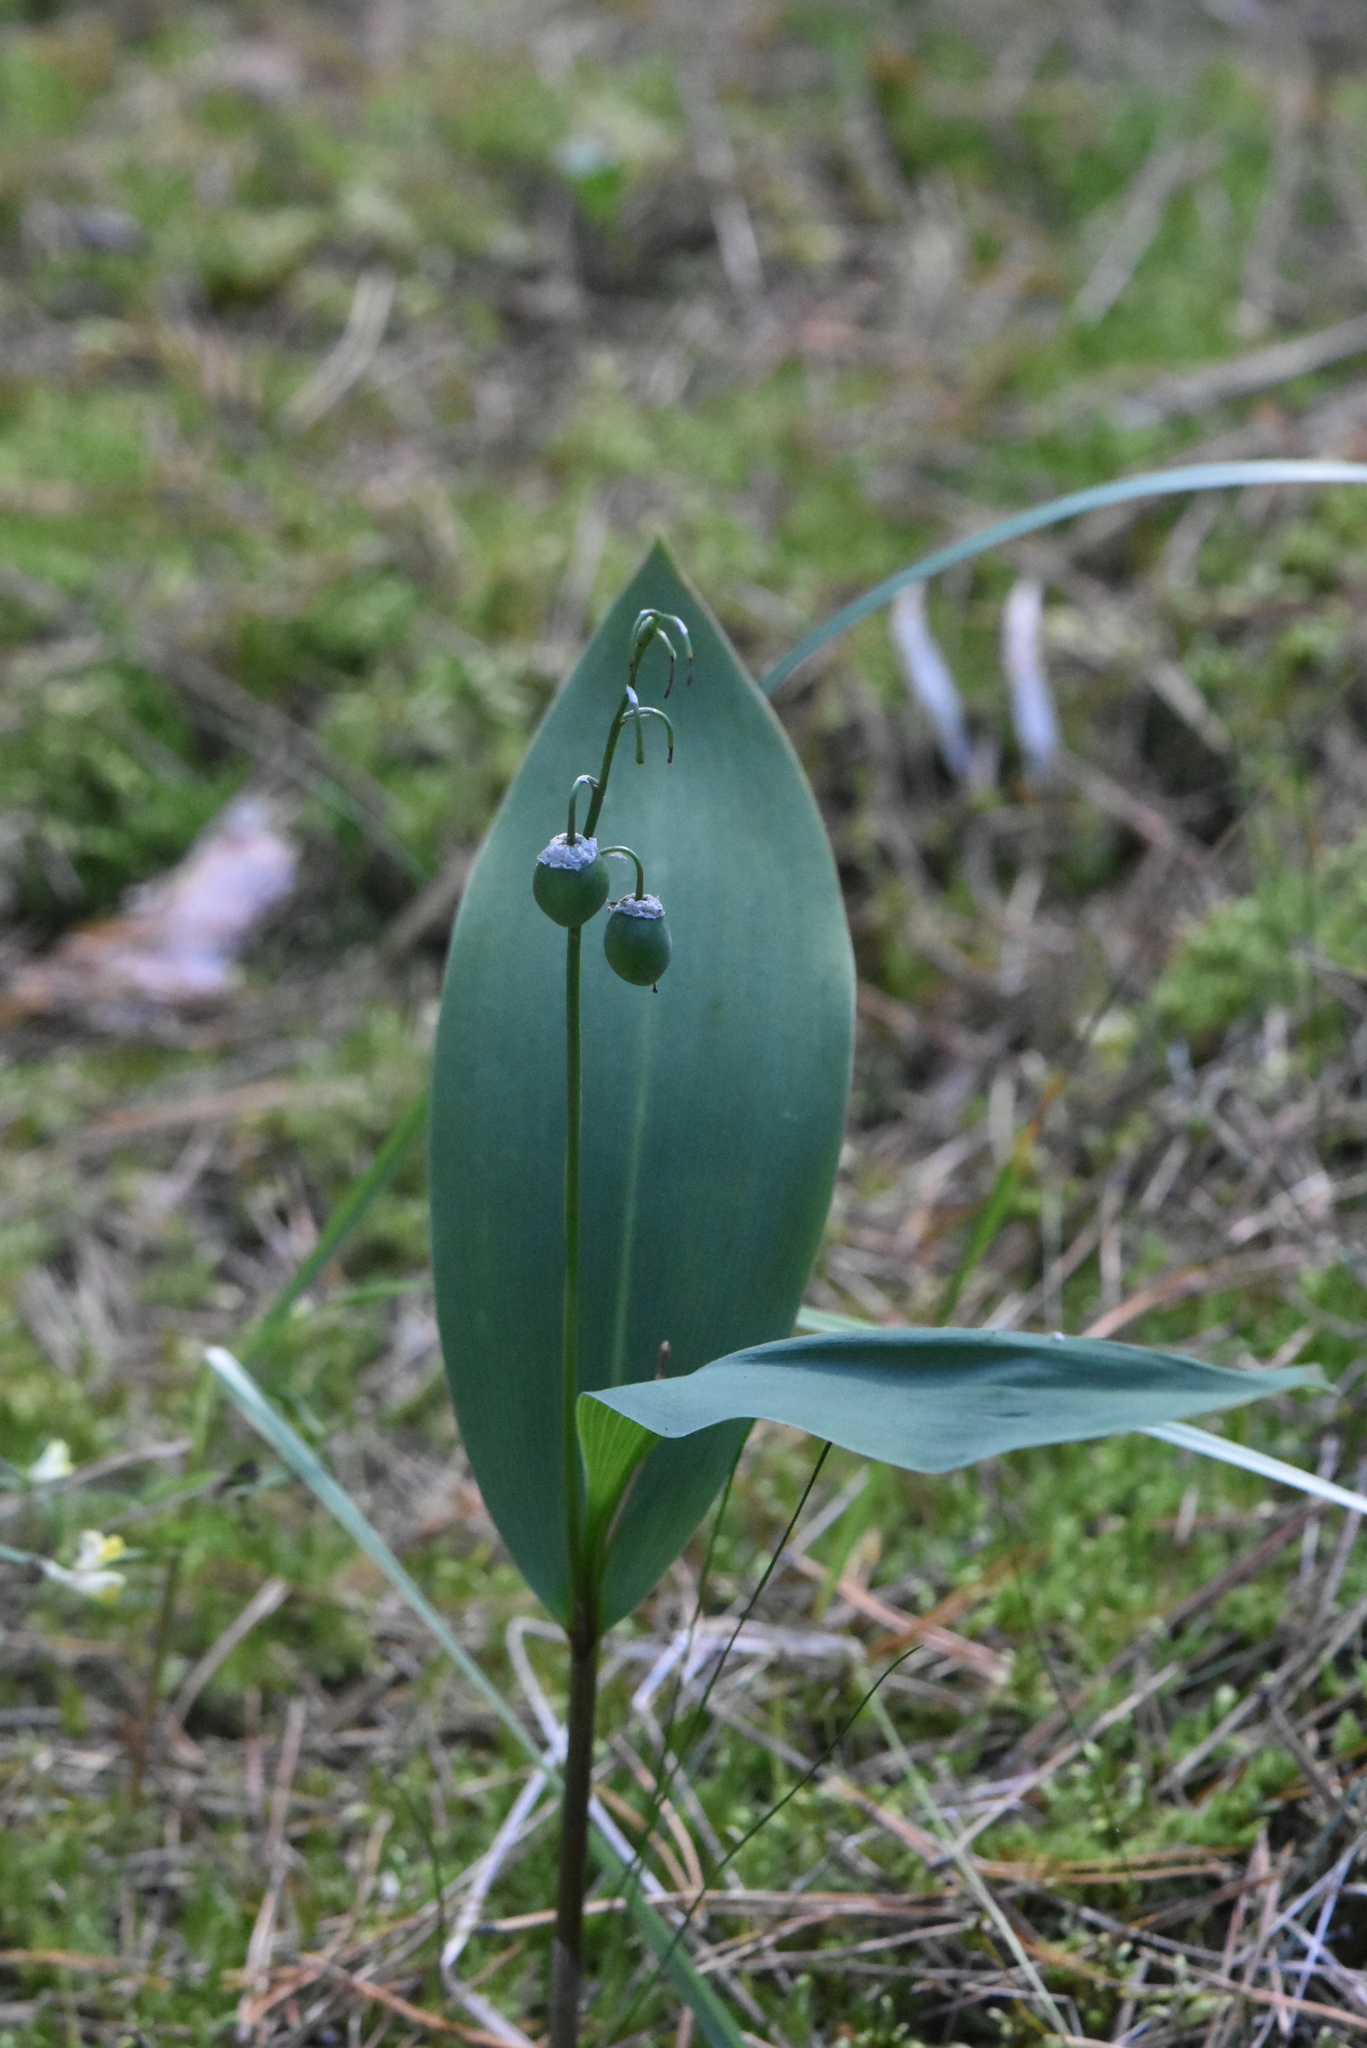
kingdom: Plantae
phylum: Tracheophyta
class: Liliopsida
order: Asparagales
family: Asparagaceae
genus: Convallaria
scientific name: Convallaria majalis
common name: Lily-of-the-valley
